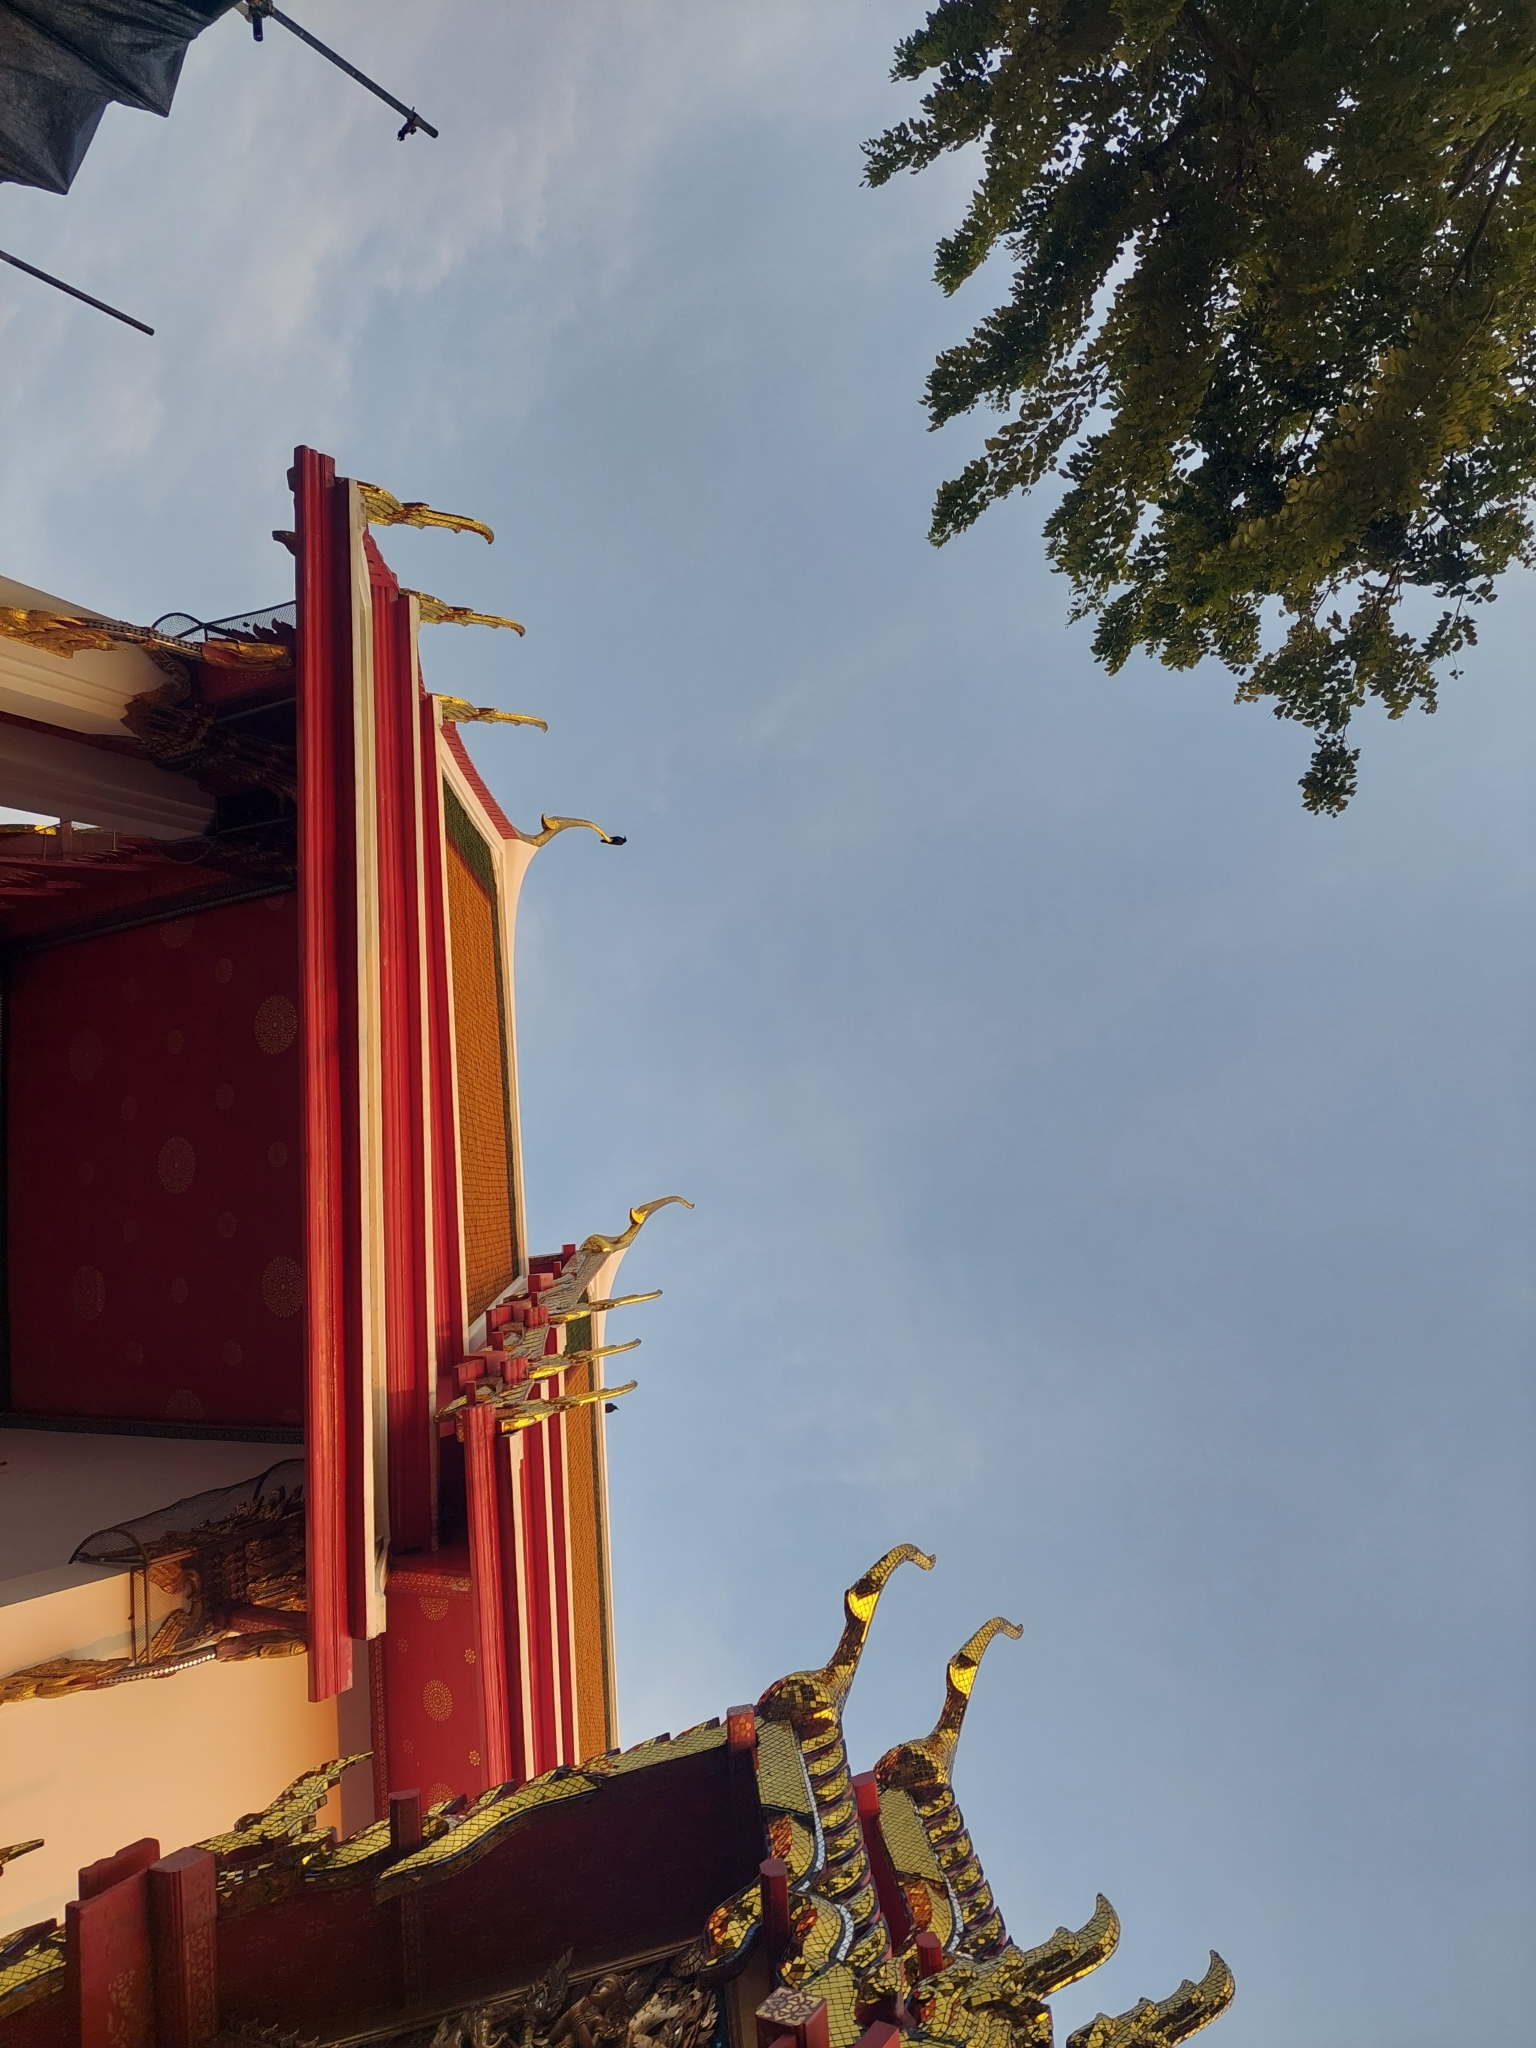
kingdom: Animalia
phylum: Chordata
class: Aves
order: Passeriformes
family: Corvidae
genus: Corvus
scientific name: Corvus macrorhynchos
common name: Large-billed crow
